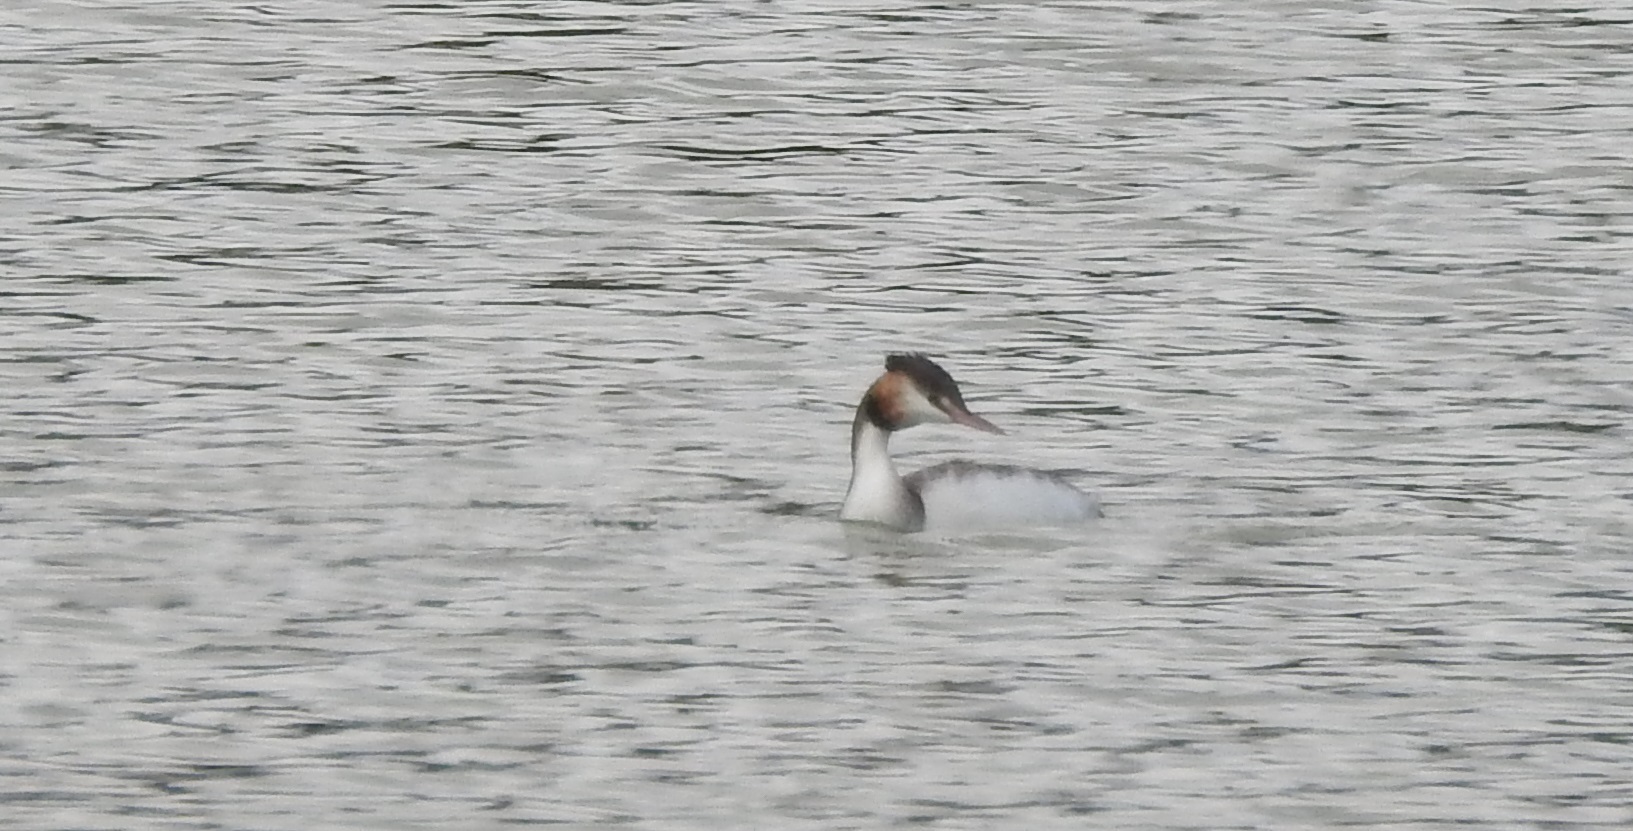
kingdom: Animalia
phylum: Chordata
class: Aves
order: Podicipediformes
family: Podicipedidae
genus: Podiceps
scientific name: Podiceps cristatus
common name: Great crested grebe
